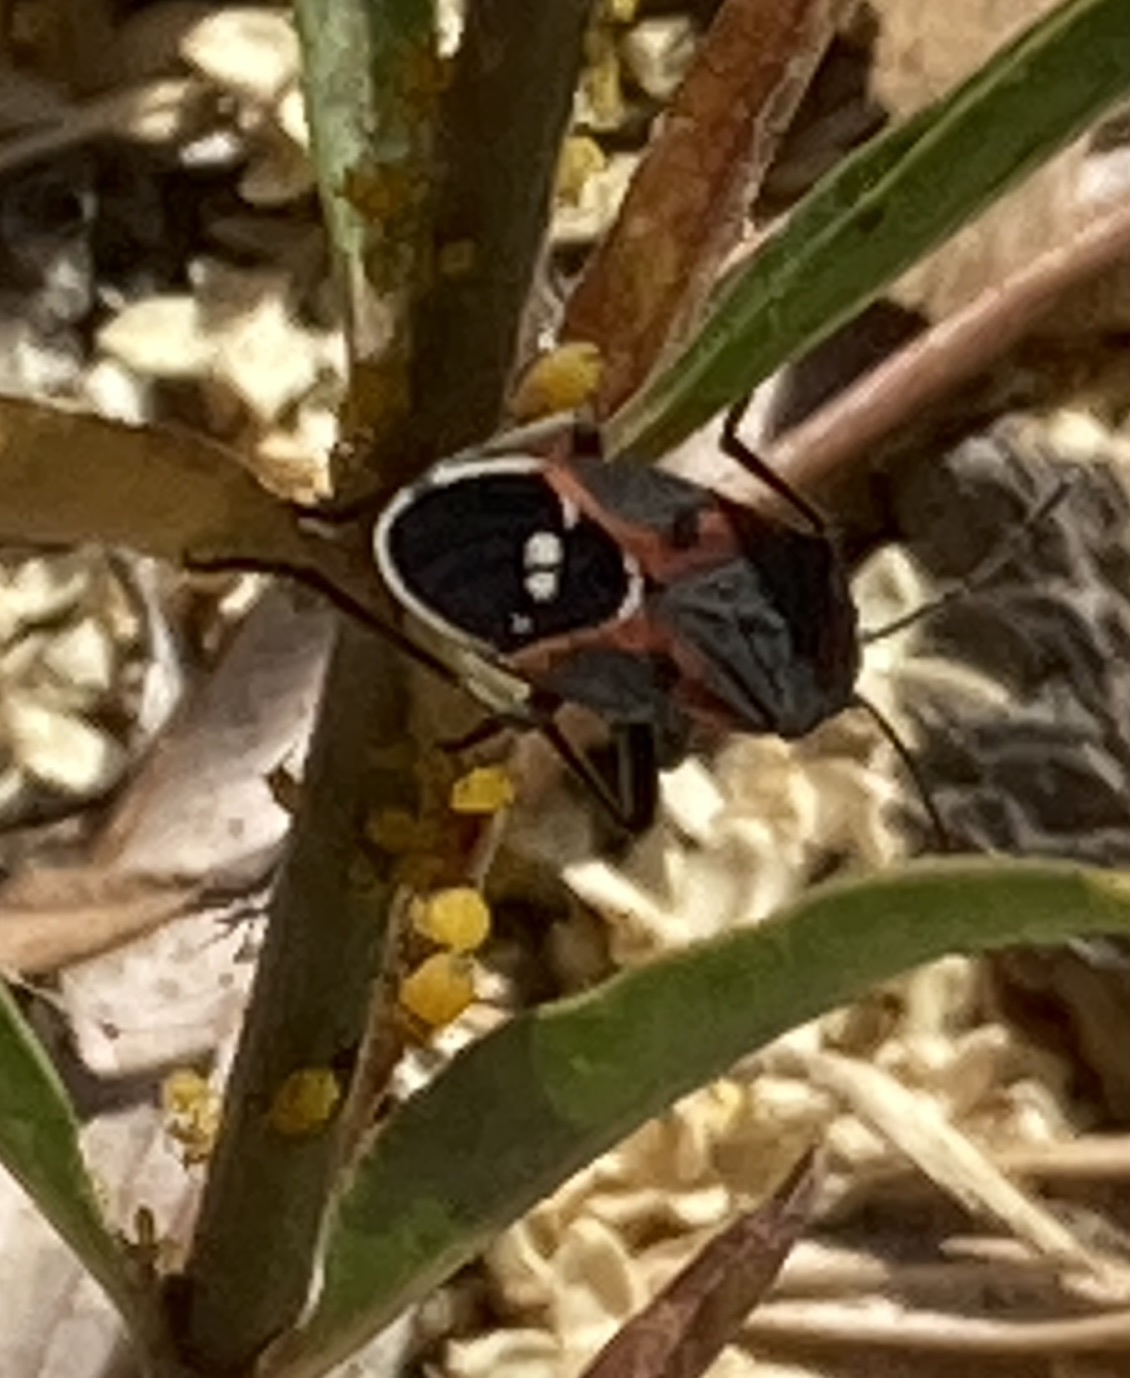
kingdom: Animalia
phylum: Arthropoda
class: Insecta
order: Hemiptera
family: Lygaeidae
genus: Lygaeus
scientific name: Lygaeus kalmii
